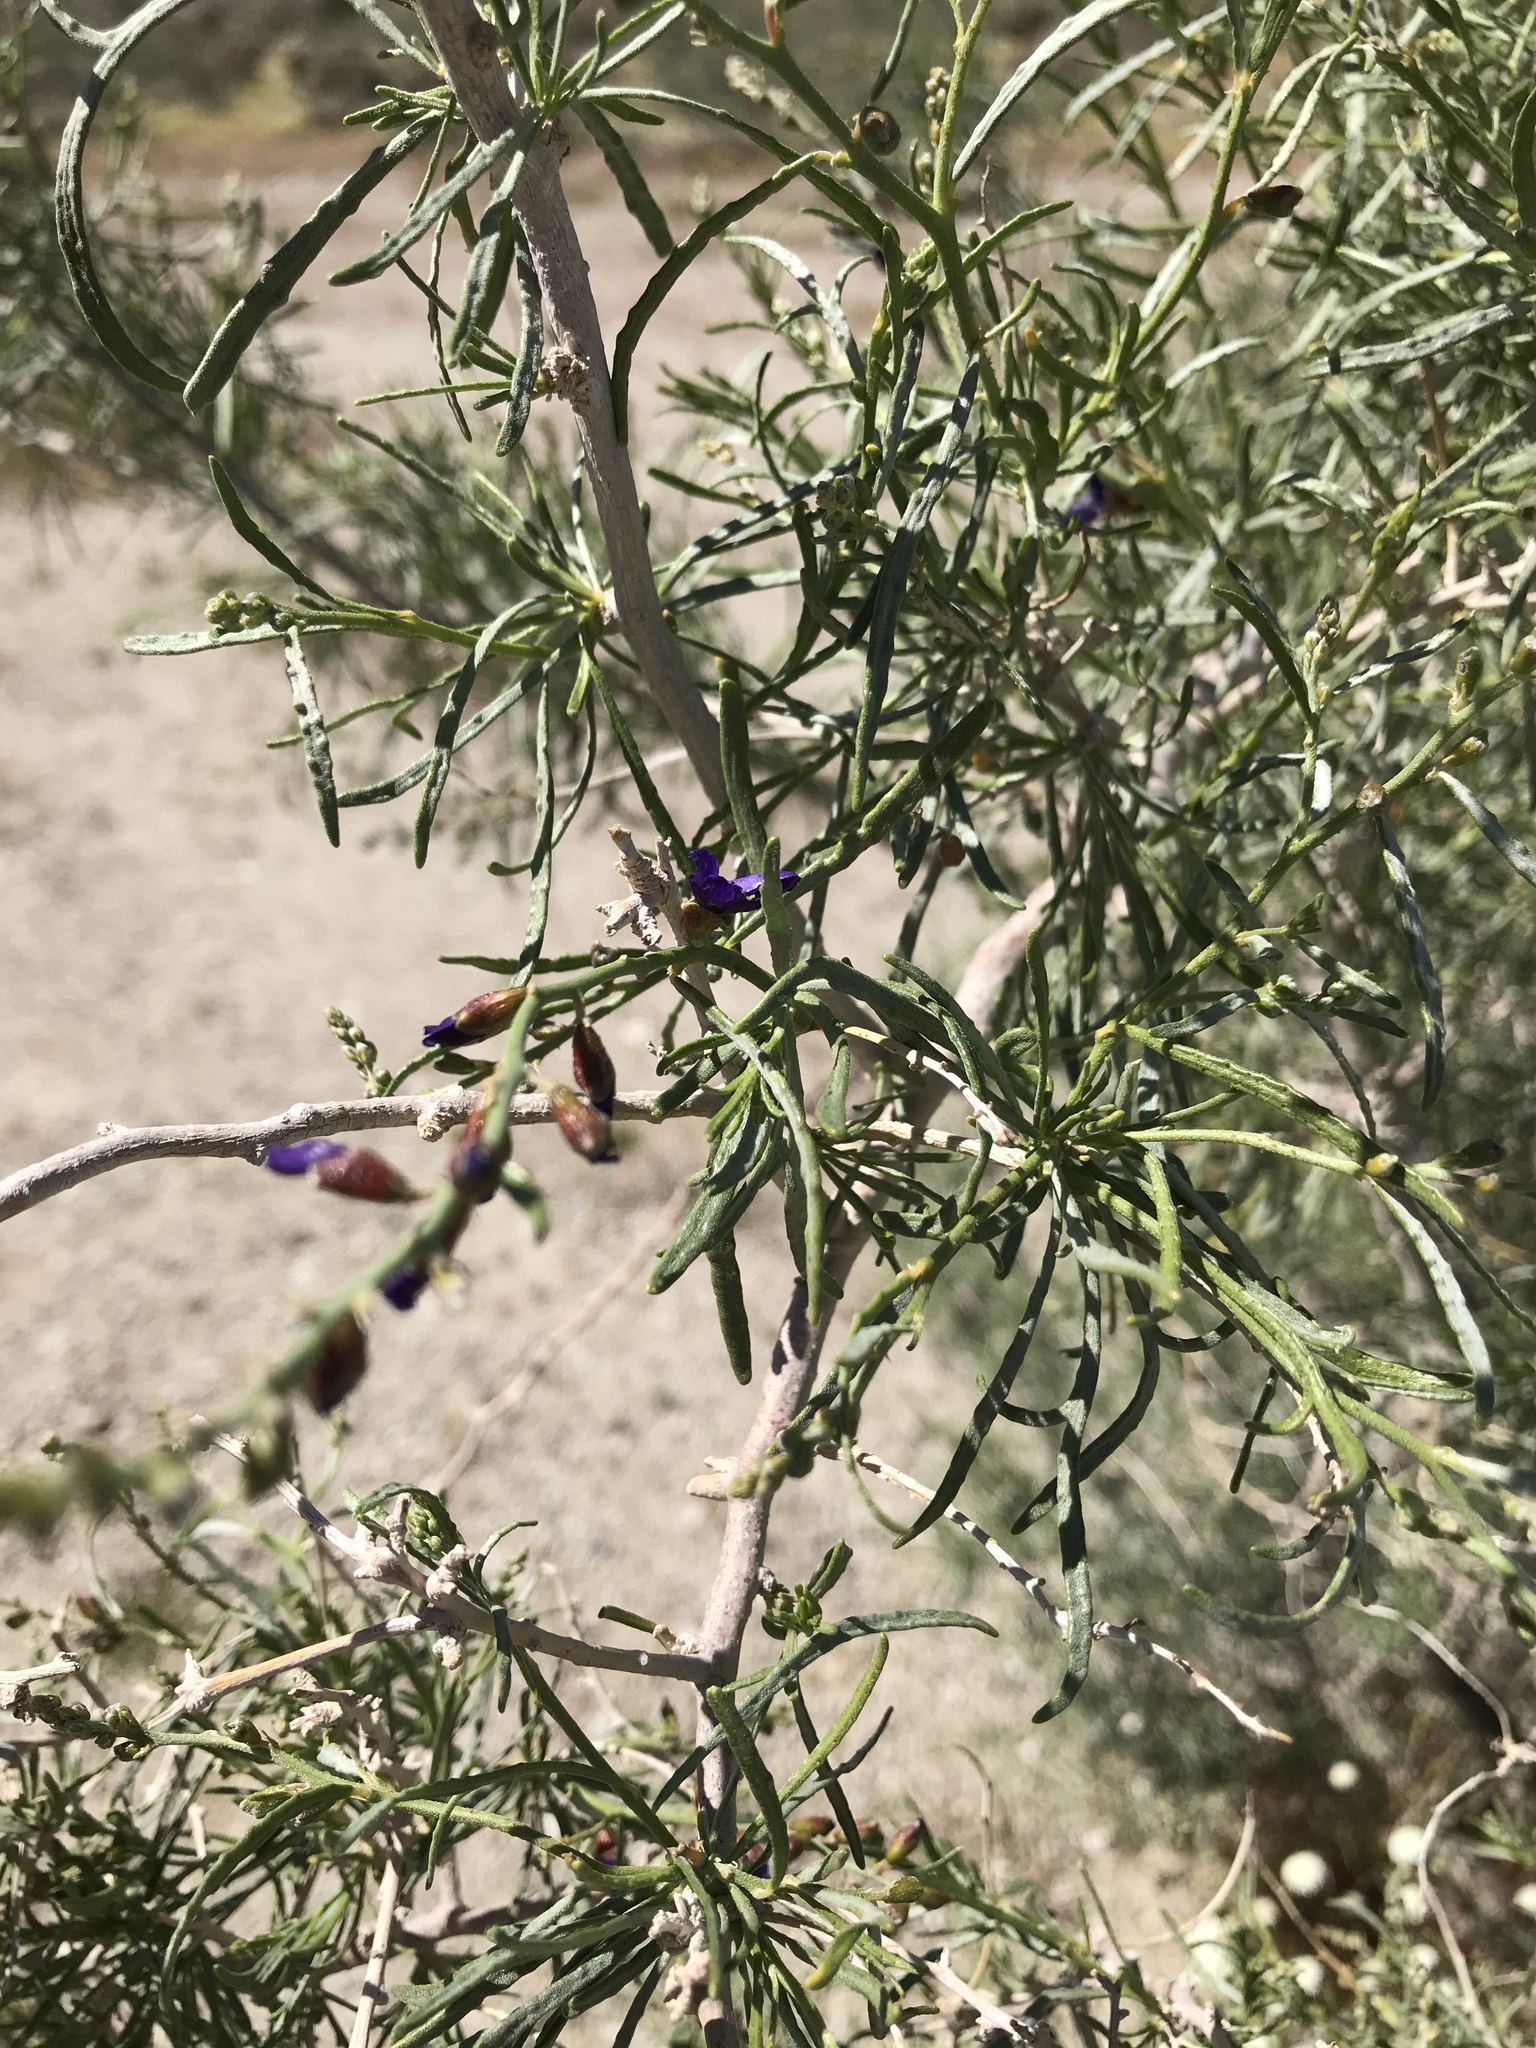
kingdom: Plantae
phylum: Tracheophyta
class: Magnoliopsida
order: Fabales
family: Fabaceae
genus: Psorothamnus
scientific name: Psorothamnus schottii
